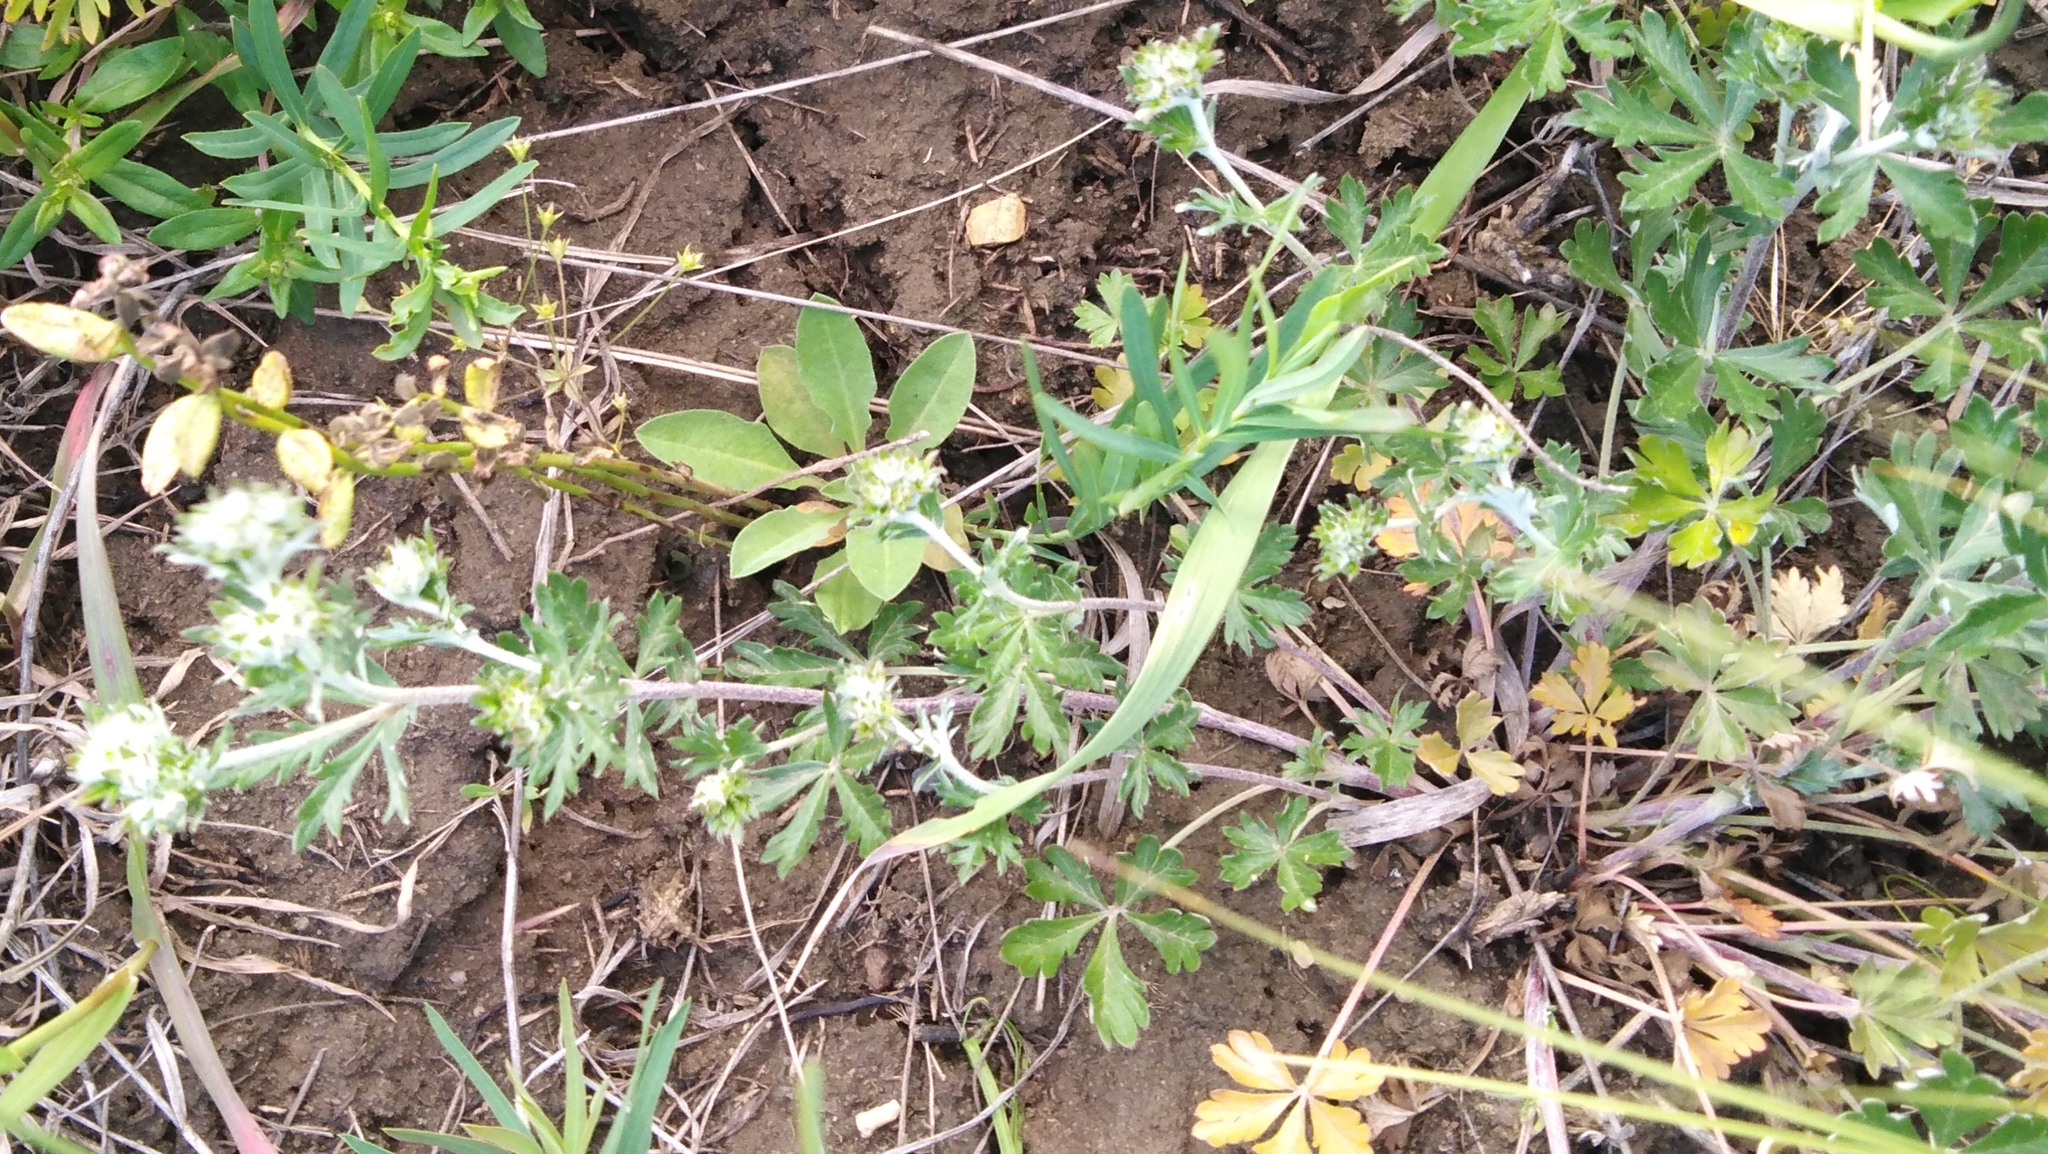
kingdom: Plantae
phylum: Tracheophyta
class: Magnoliopsida
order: Rosales
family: Rosaceae
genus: Potentilla
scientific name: Potentilla argentea
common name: Hoary cinquefoil
